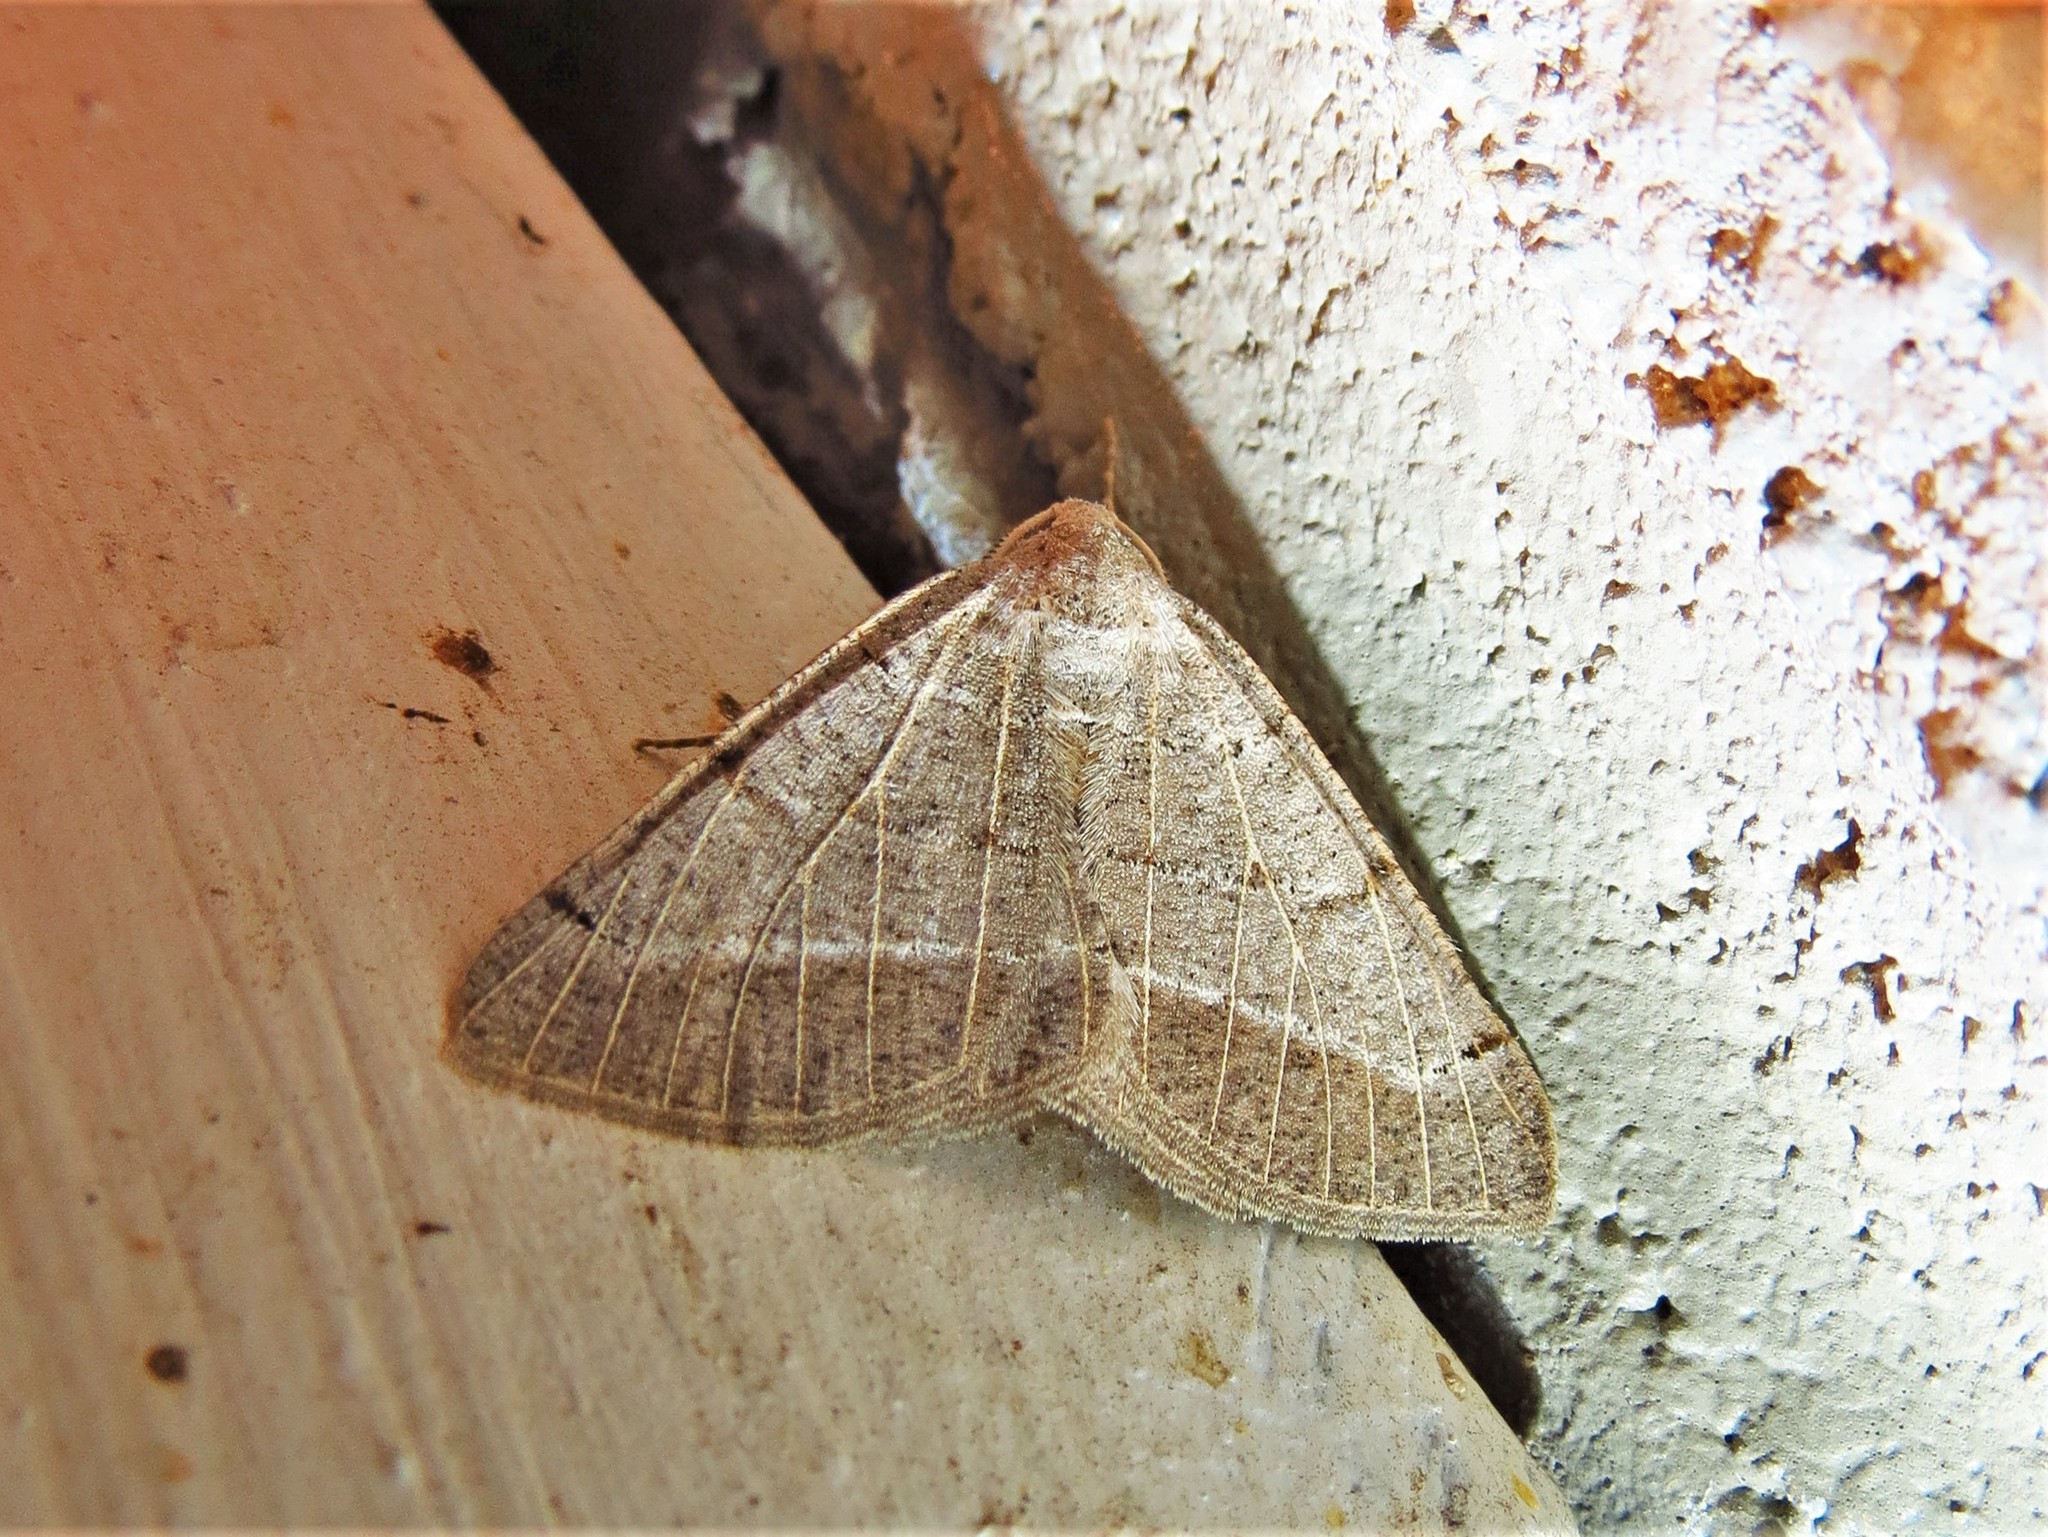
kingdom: Animalia
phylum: Arthropoda
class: Insecta
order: Lepidoptera
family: Geometridae
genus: Isturgia
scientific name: Isturgia dislocaria
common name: Pale-viened enconista
